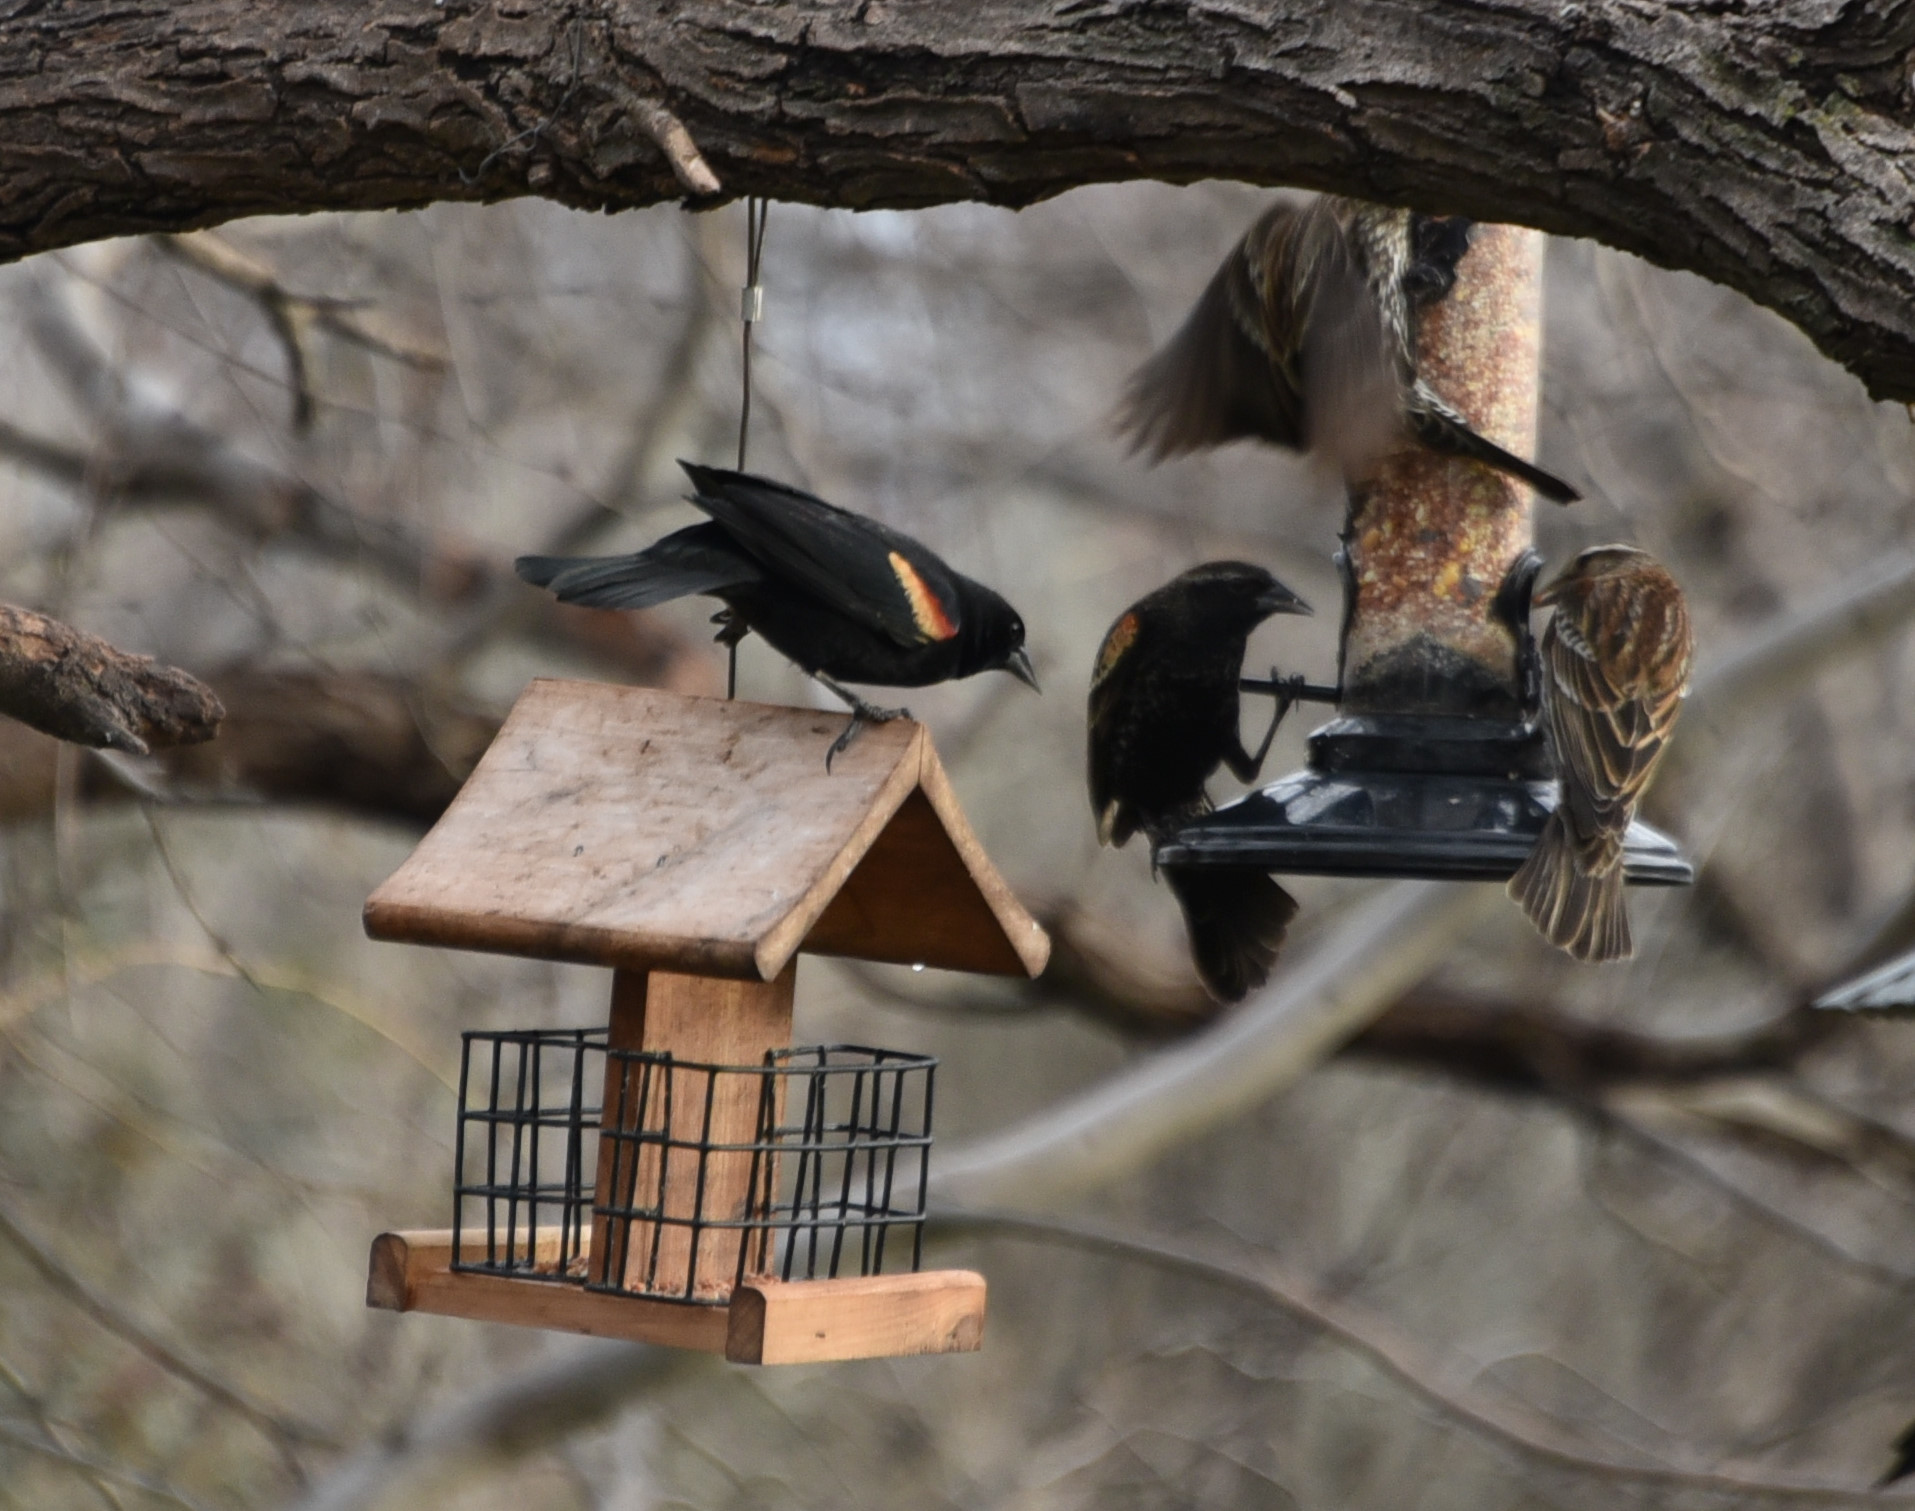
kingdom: Animalia
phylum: Chordata
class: Aves
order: Passeriformes
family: Icteridae
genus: Agelaius
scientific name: Agelaius phoeniceus
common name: Red-winged blackbird
